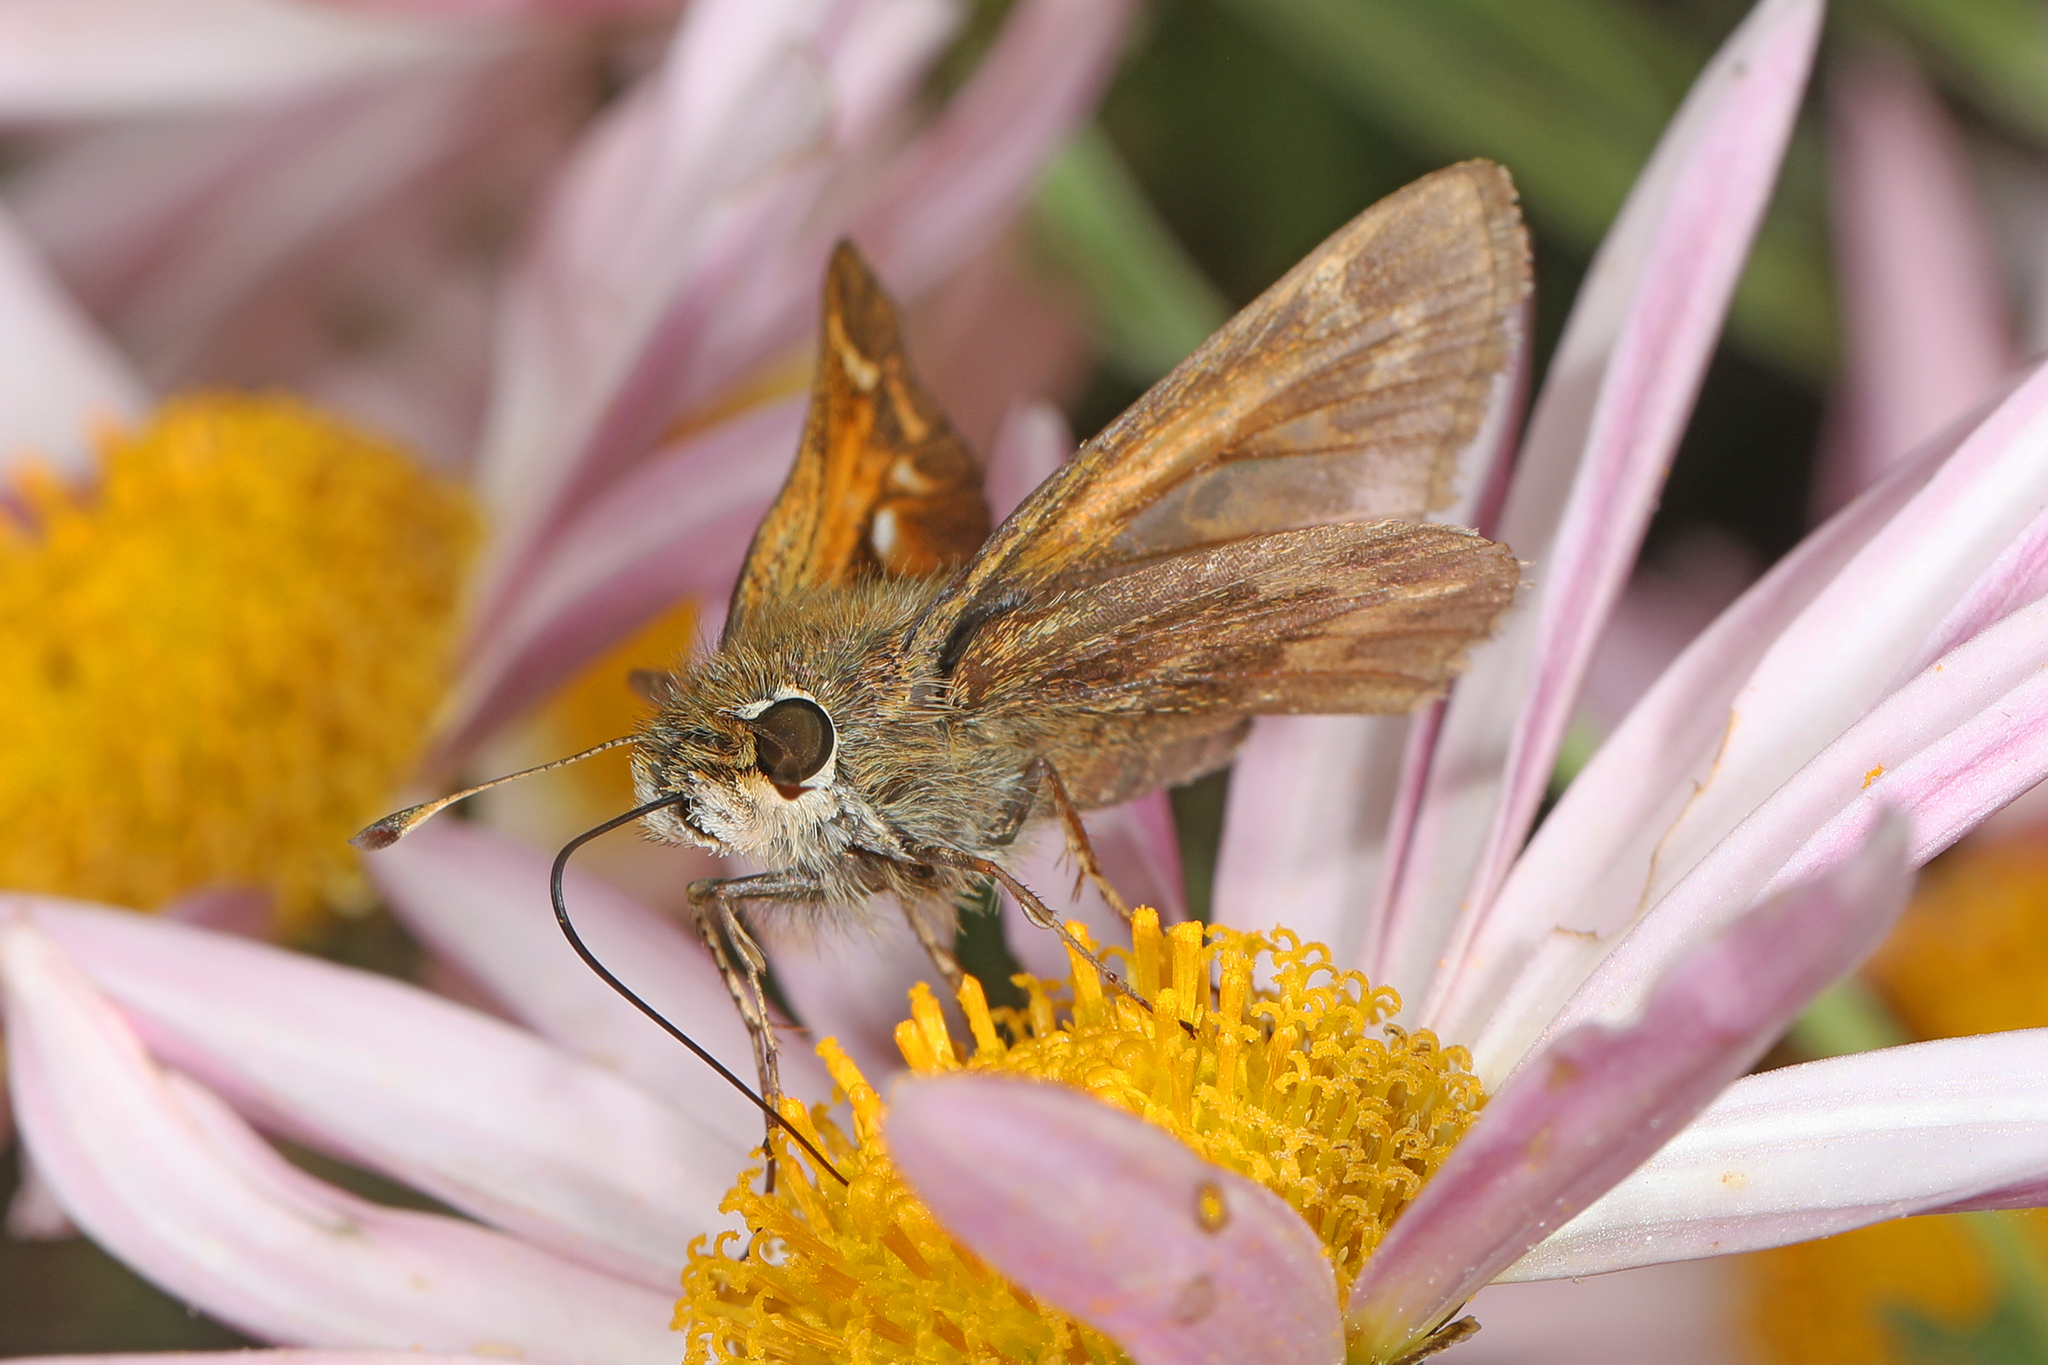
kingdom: Animalia
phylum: Arthropoda
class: Insecta
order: Lepidoptera
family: Hesperiidae
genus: Atalopedes
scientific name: Atalopedes
